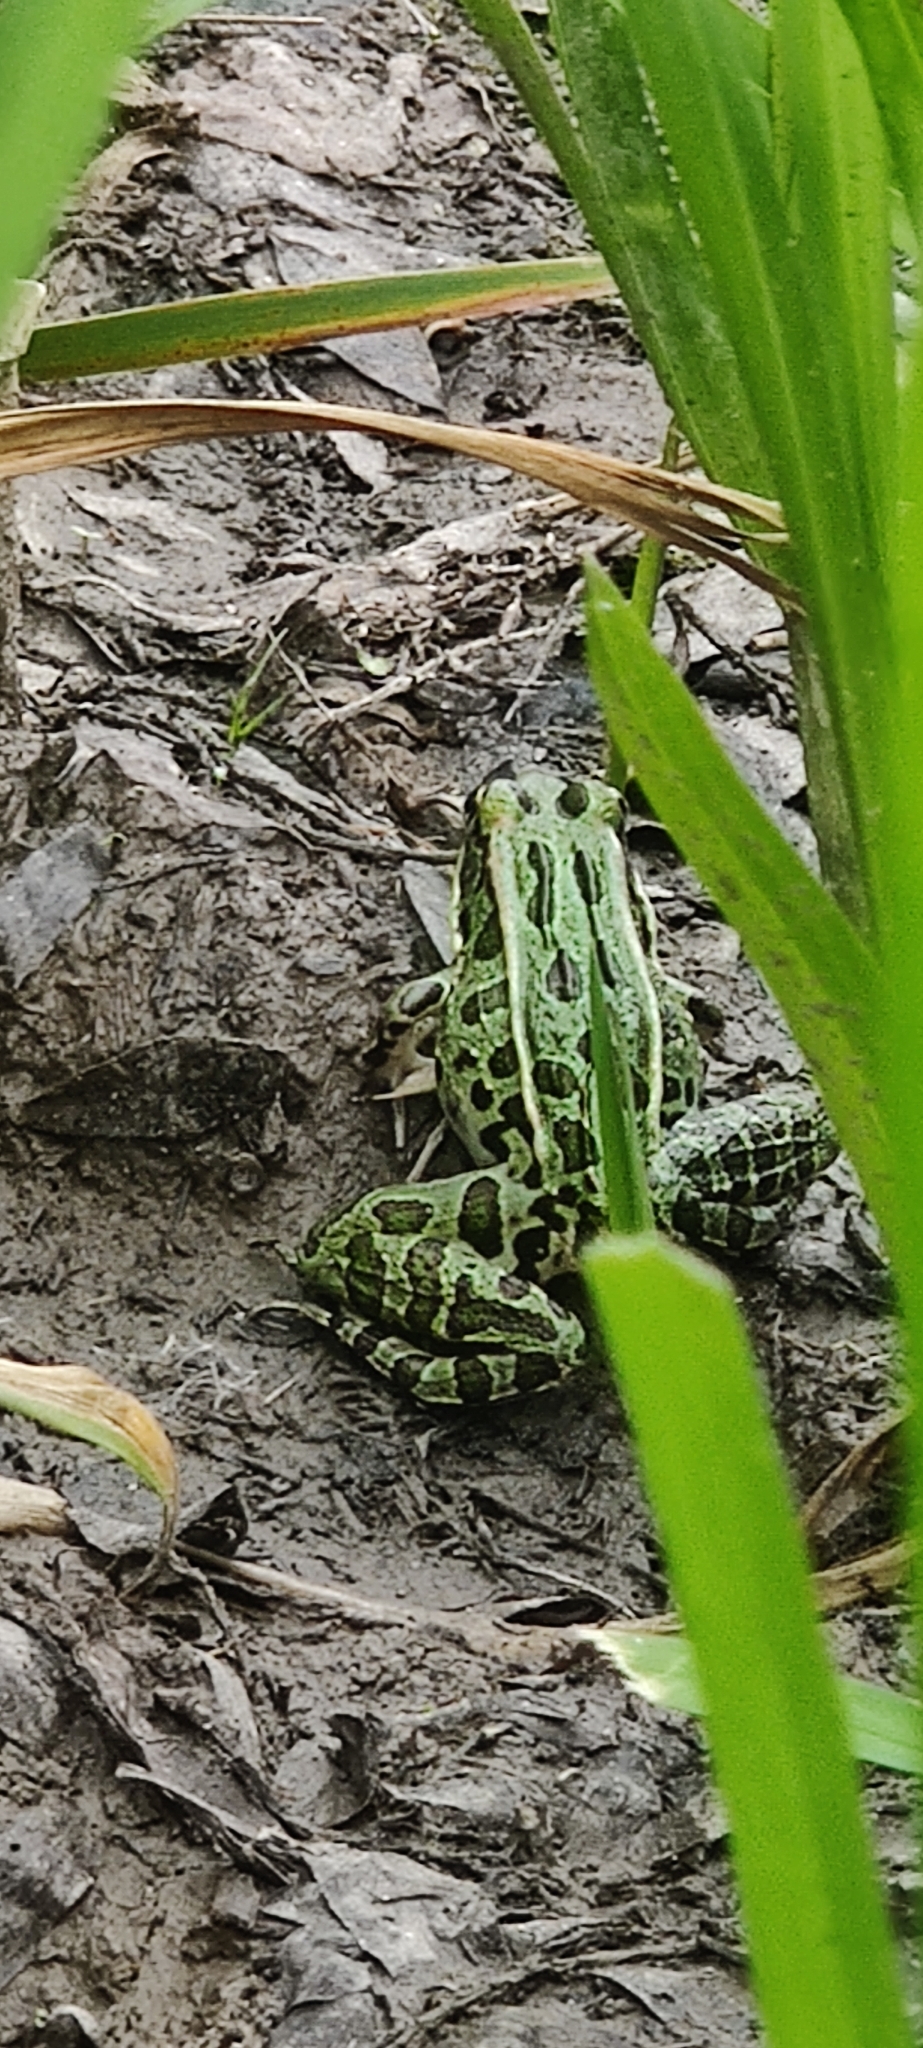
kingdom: Animalia
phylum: Chordata
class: Amphibia
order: Anura
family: Ranidae
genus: Lithobates
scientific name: Lithobates pipiens
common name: Northern leopard frog
